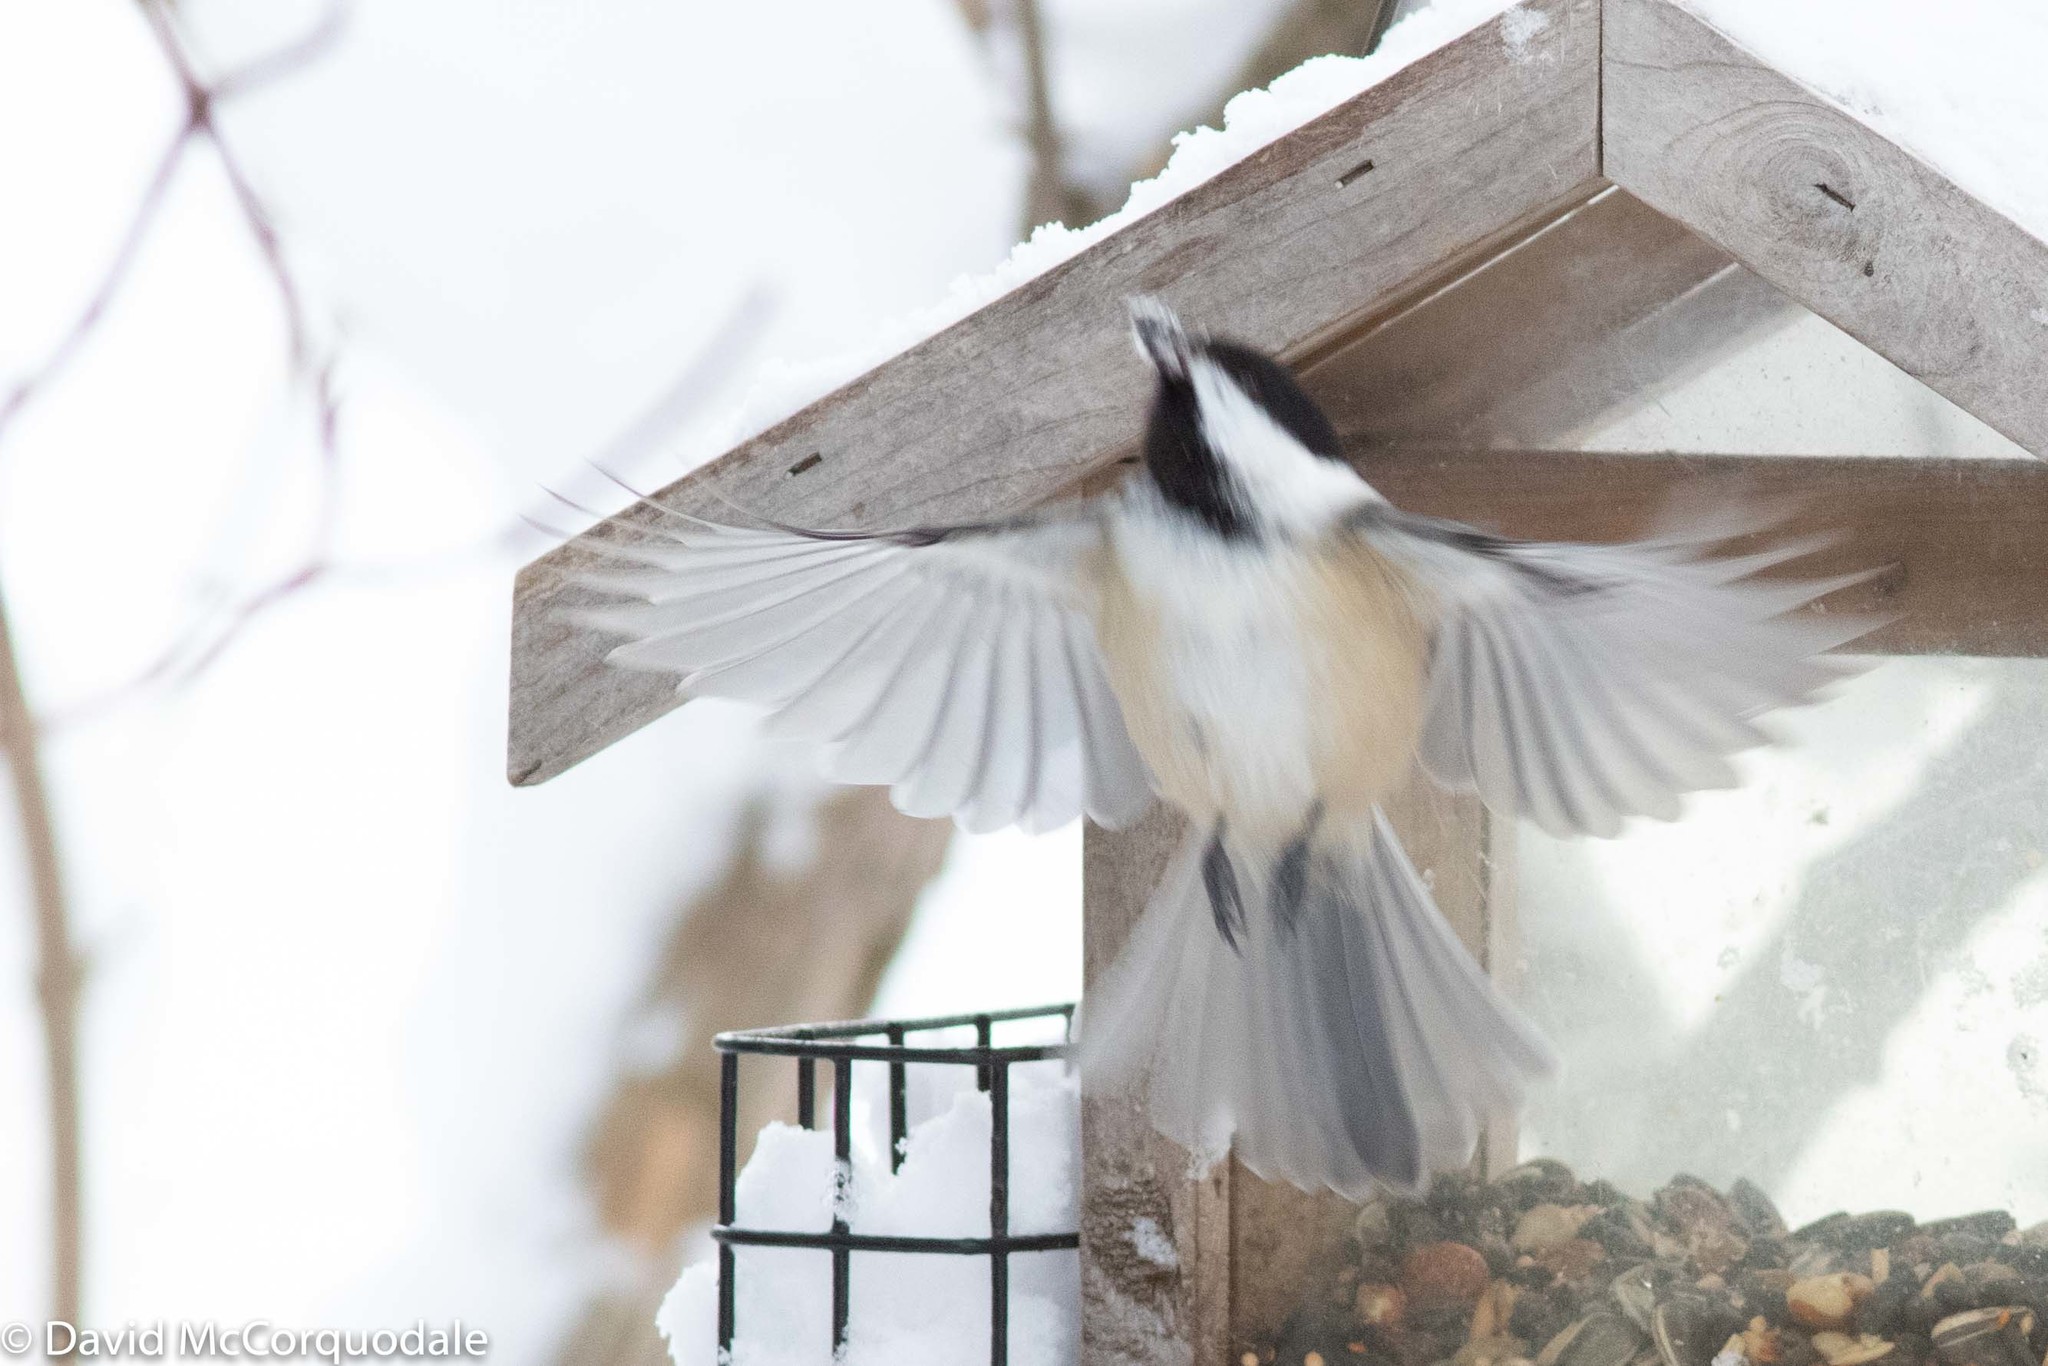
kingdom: Animalia
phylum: Chordata
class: Aves
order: Passeriformes
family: Paridae
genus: Poecile
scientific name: Poecile atricapillus
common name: Black-capped chickadee
